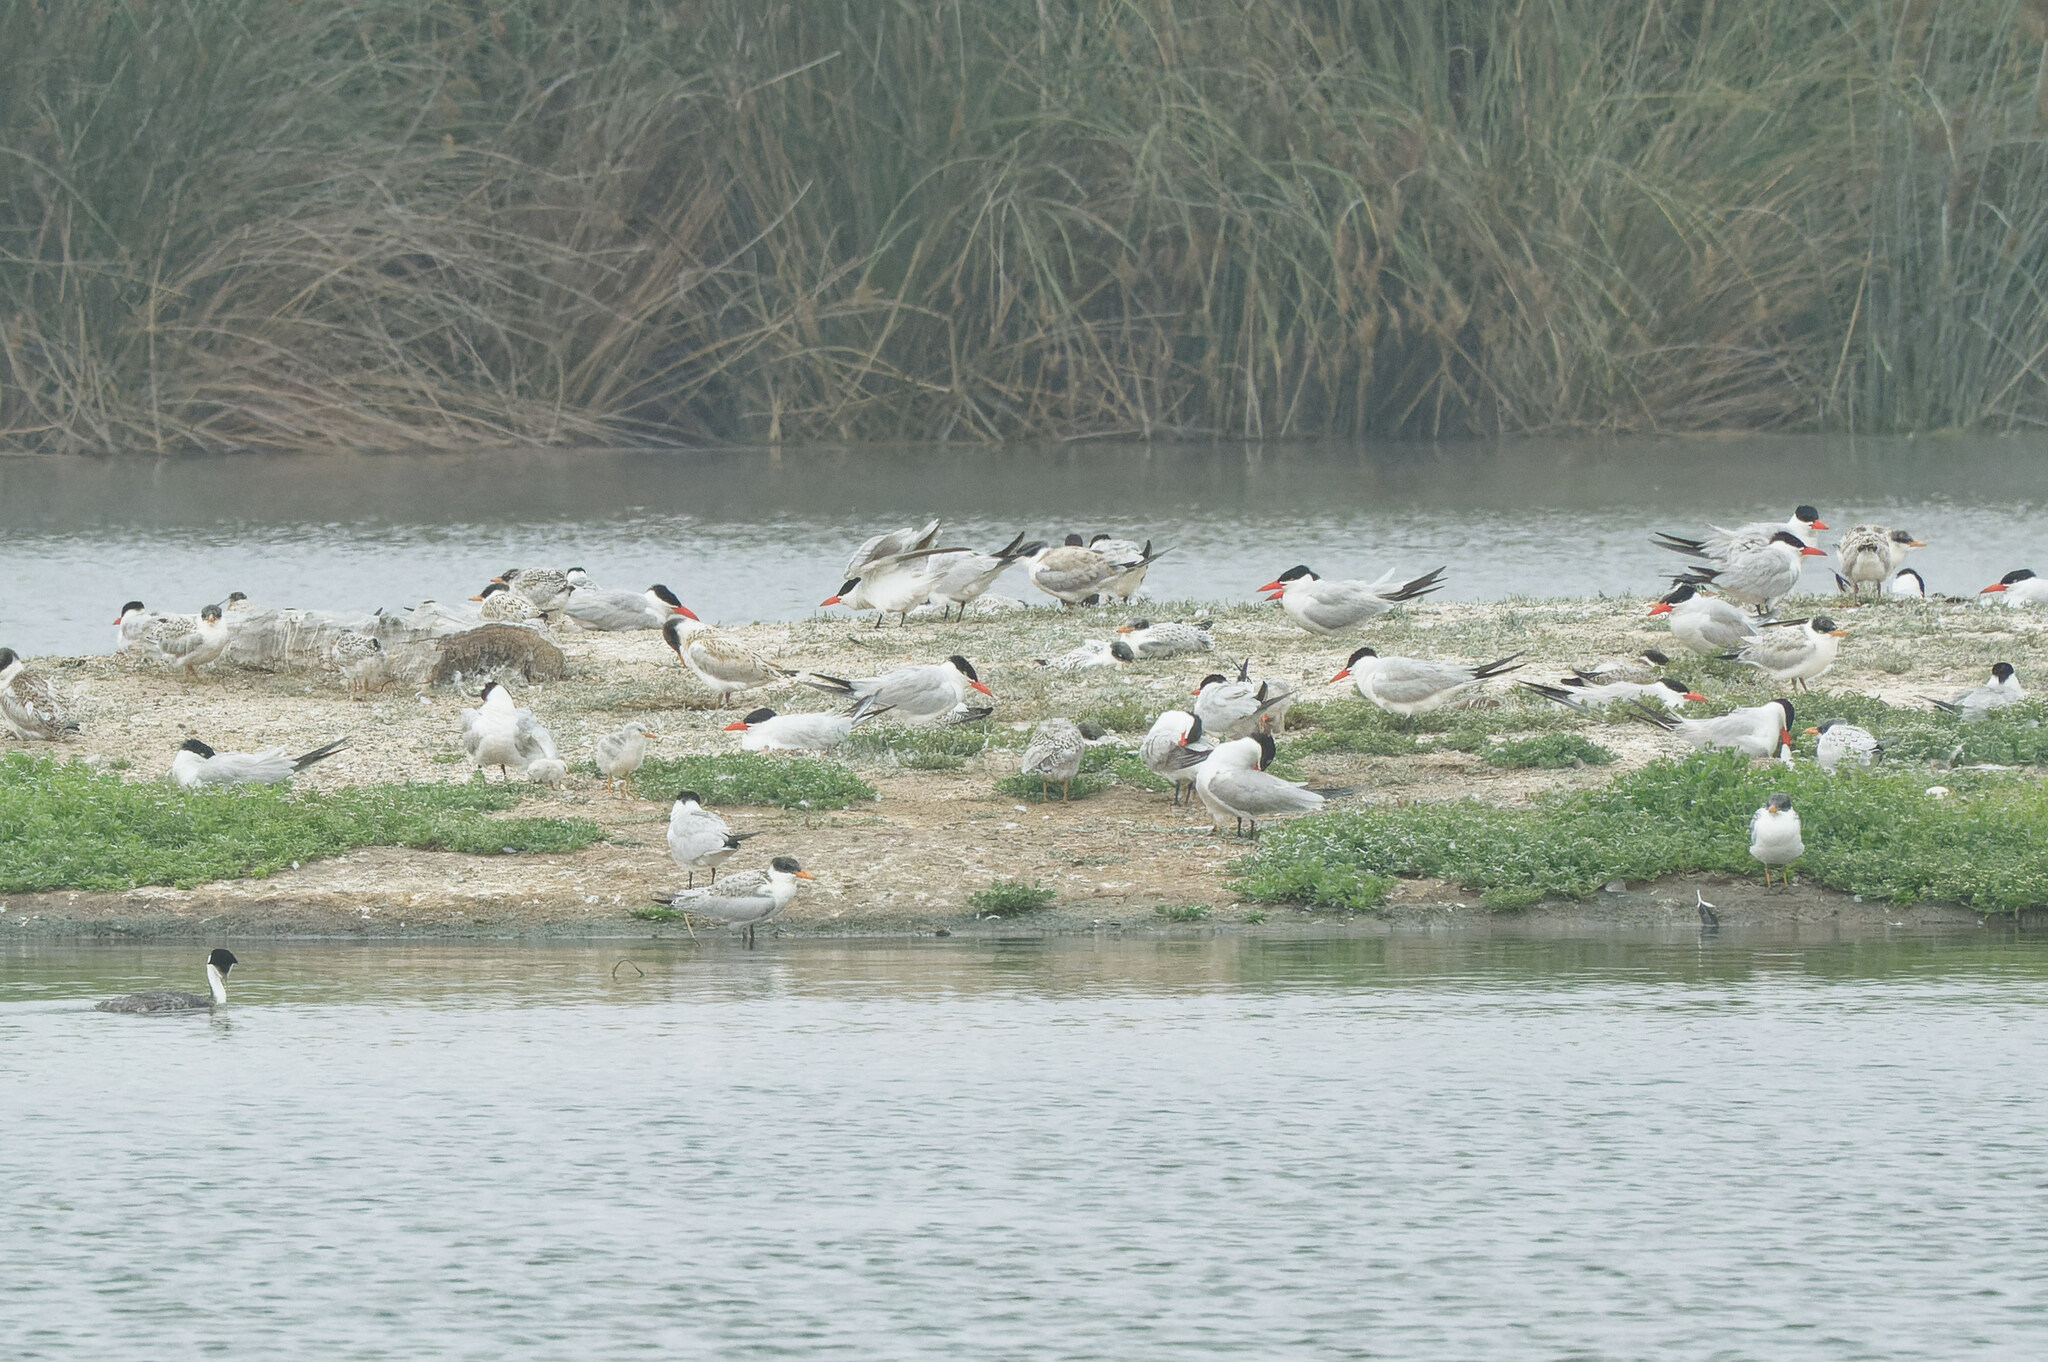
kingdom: Animalia
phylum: Chordata
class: Aves
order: Charadriiformes
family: Laridae
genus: Hydroprogne
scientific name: Hydroprogne caspia
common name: Caspian tern
